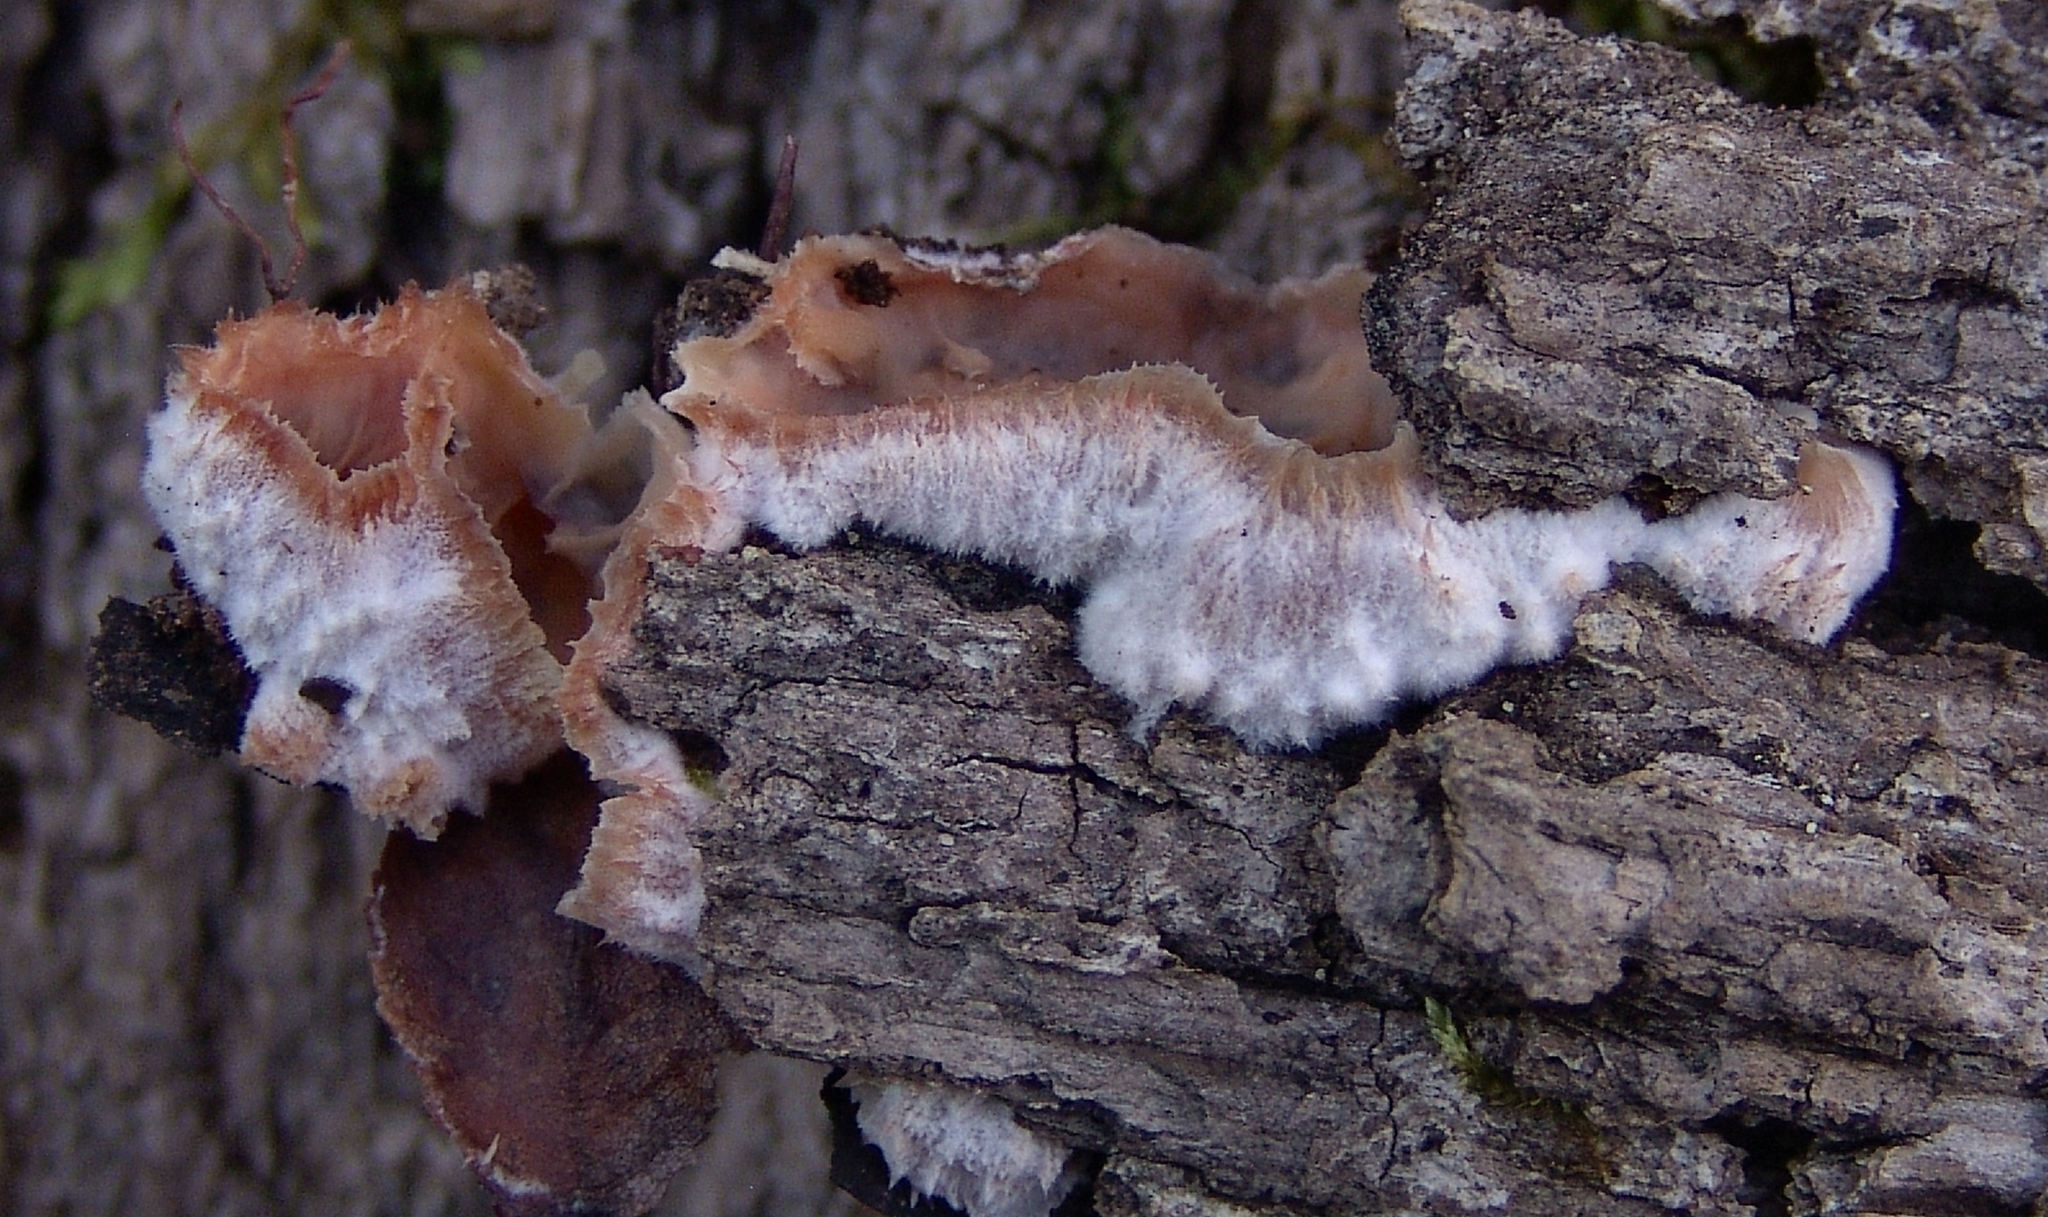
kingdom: Fungi
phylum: Basidiomycota
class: Agaricomycetes
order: Polyporales
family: Meruliaceae
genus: Phlebia
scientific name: Phlebia tremellosa
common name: Jelly rot
